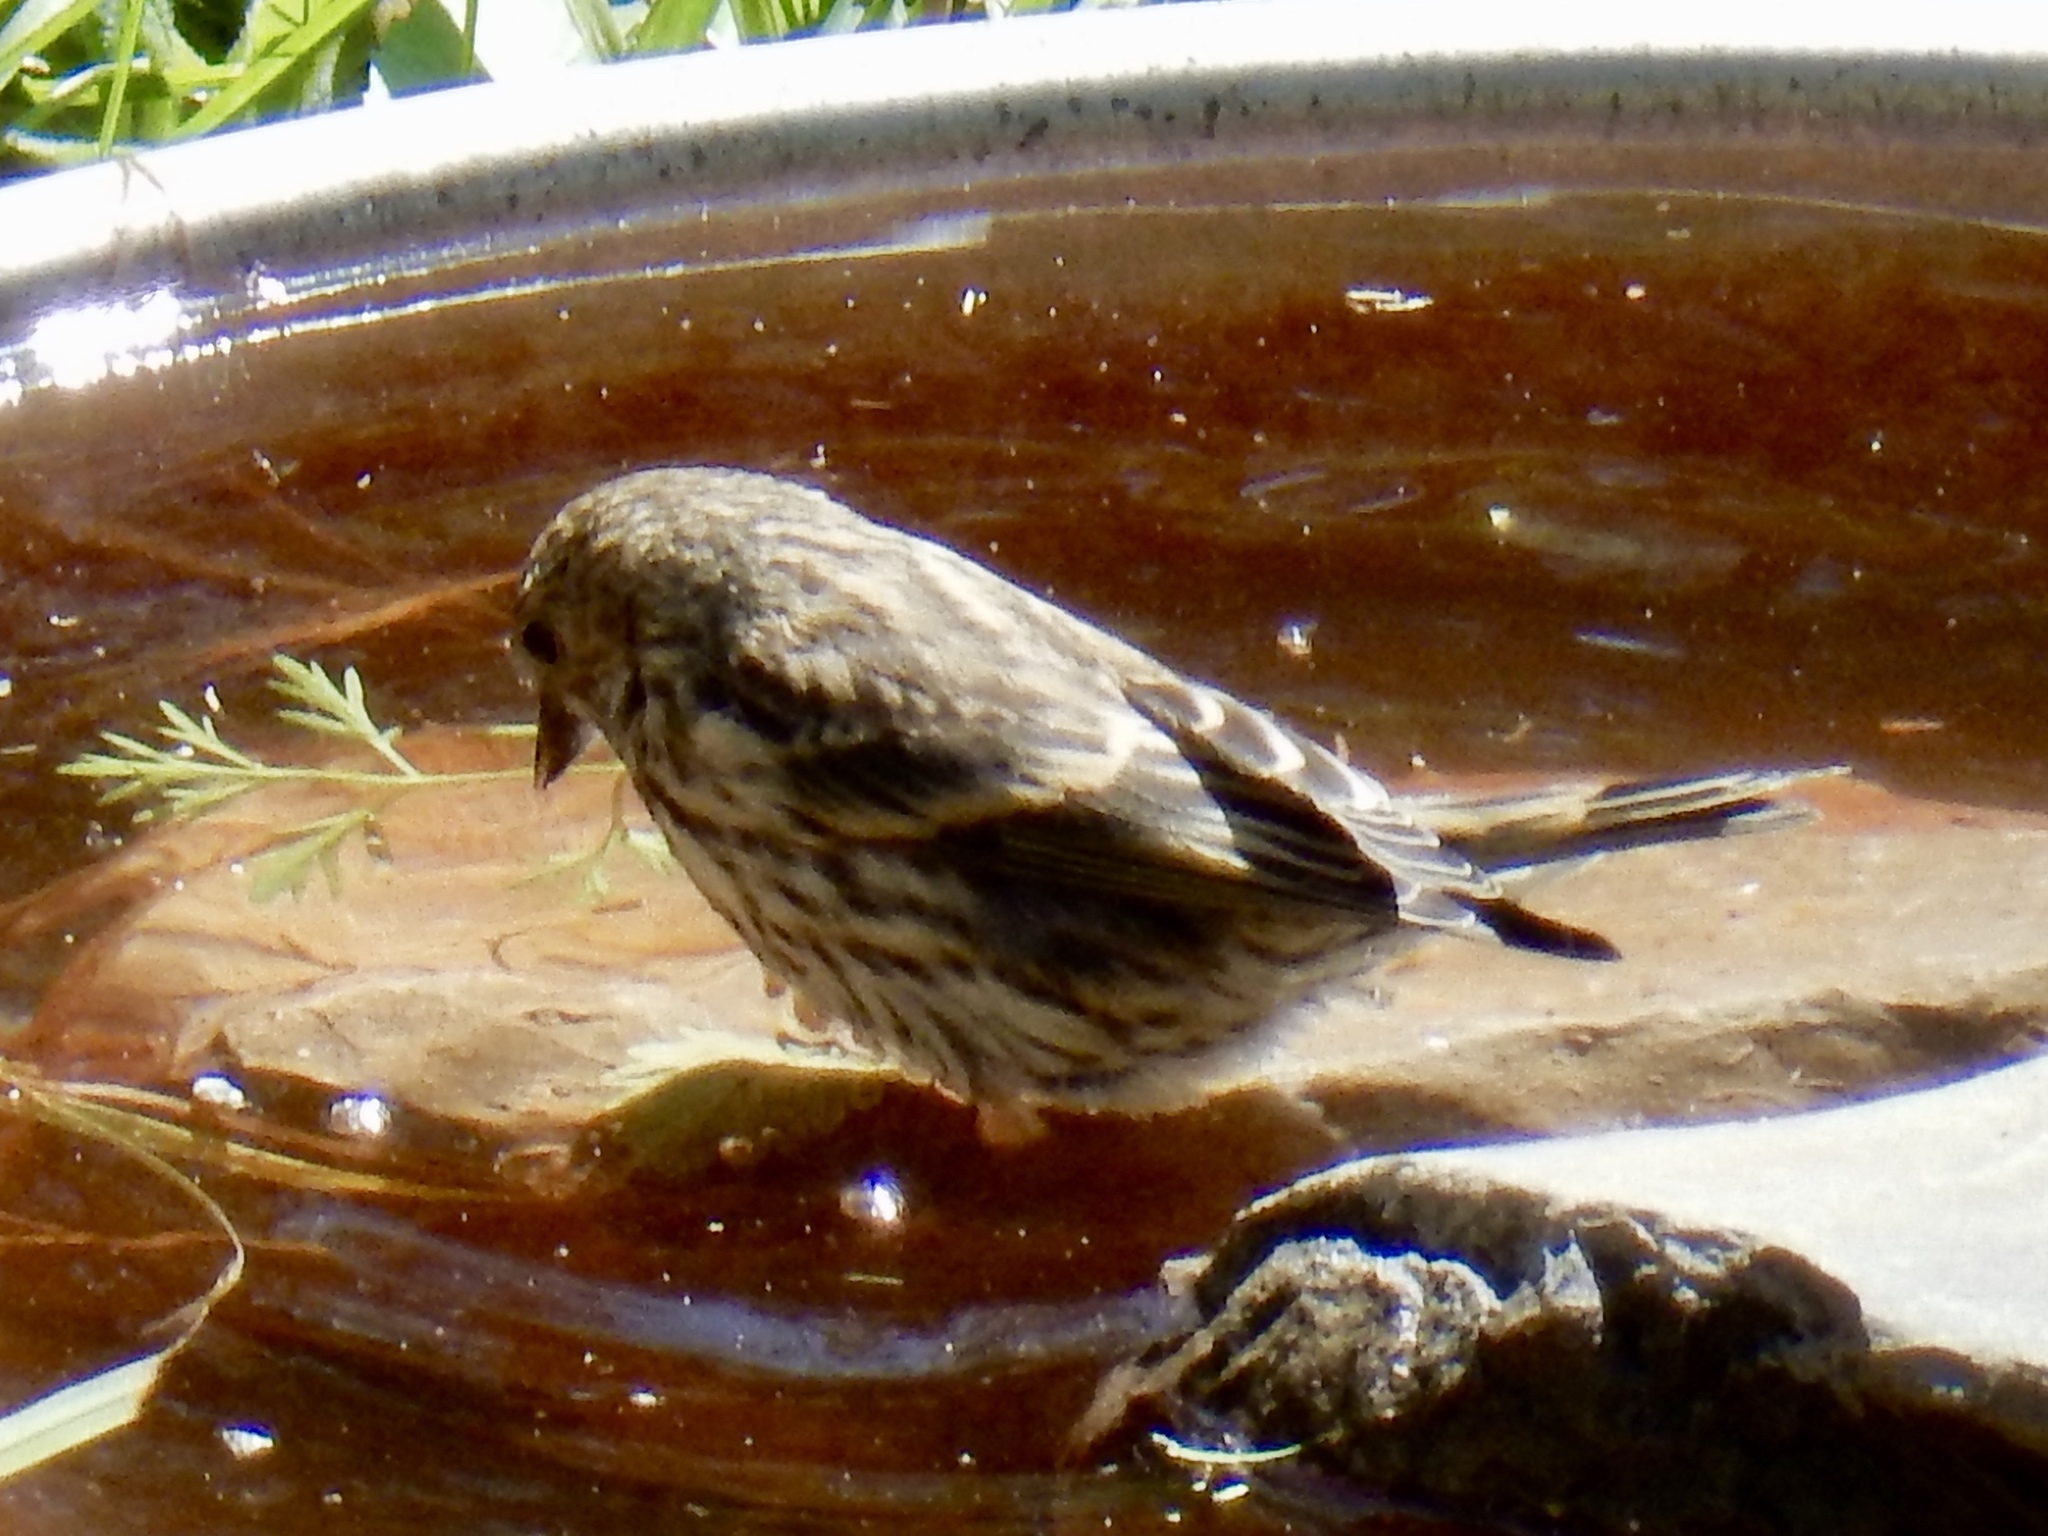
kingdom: Animalia
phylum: Chordata
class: Aves
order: Passeriformes
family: Fringillidae
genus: Spinus
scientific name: Spinus pinus
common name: Pine siskin
